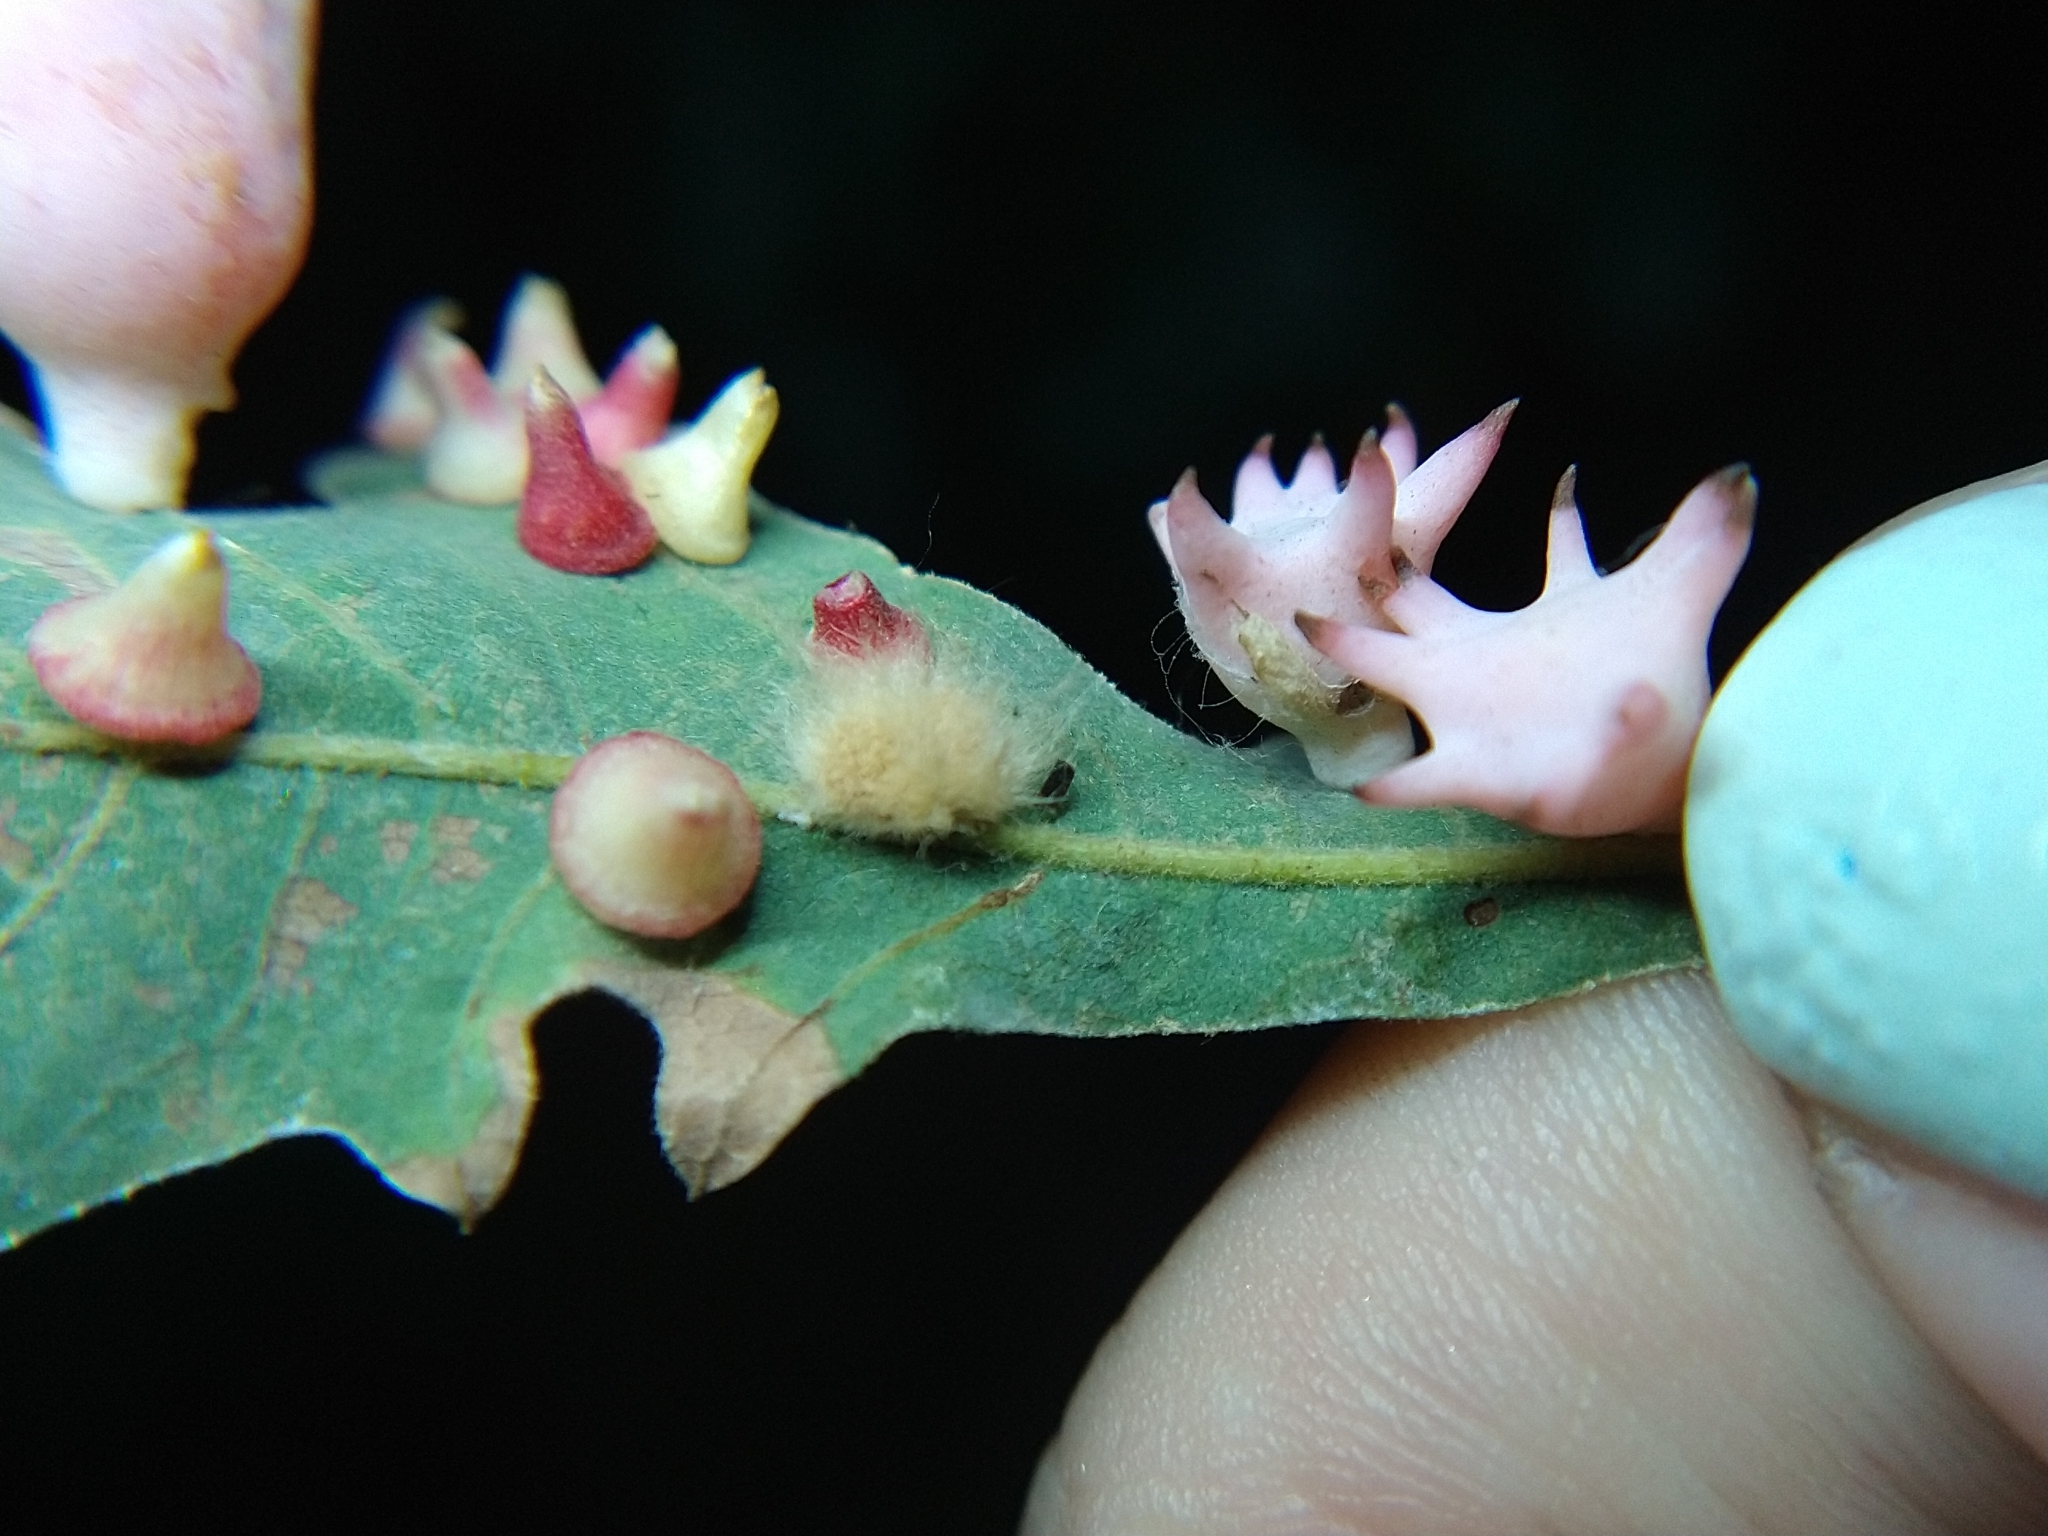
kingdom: Animalia
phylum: Arthropoda
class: Insecta
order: Hymenoptera
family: Cynipidae
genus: Andricus
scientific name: Andricus Druon fullawayi
